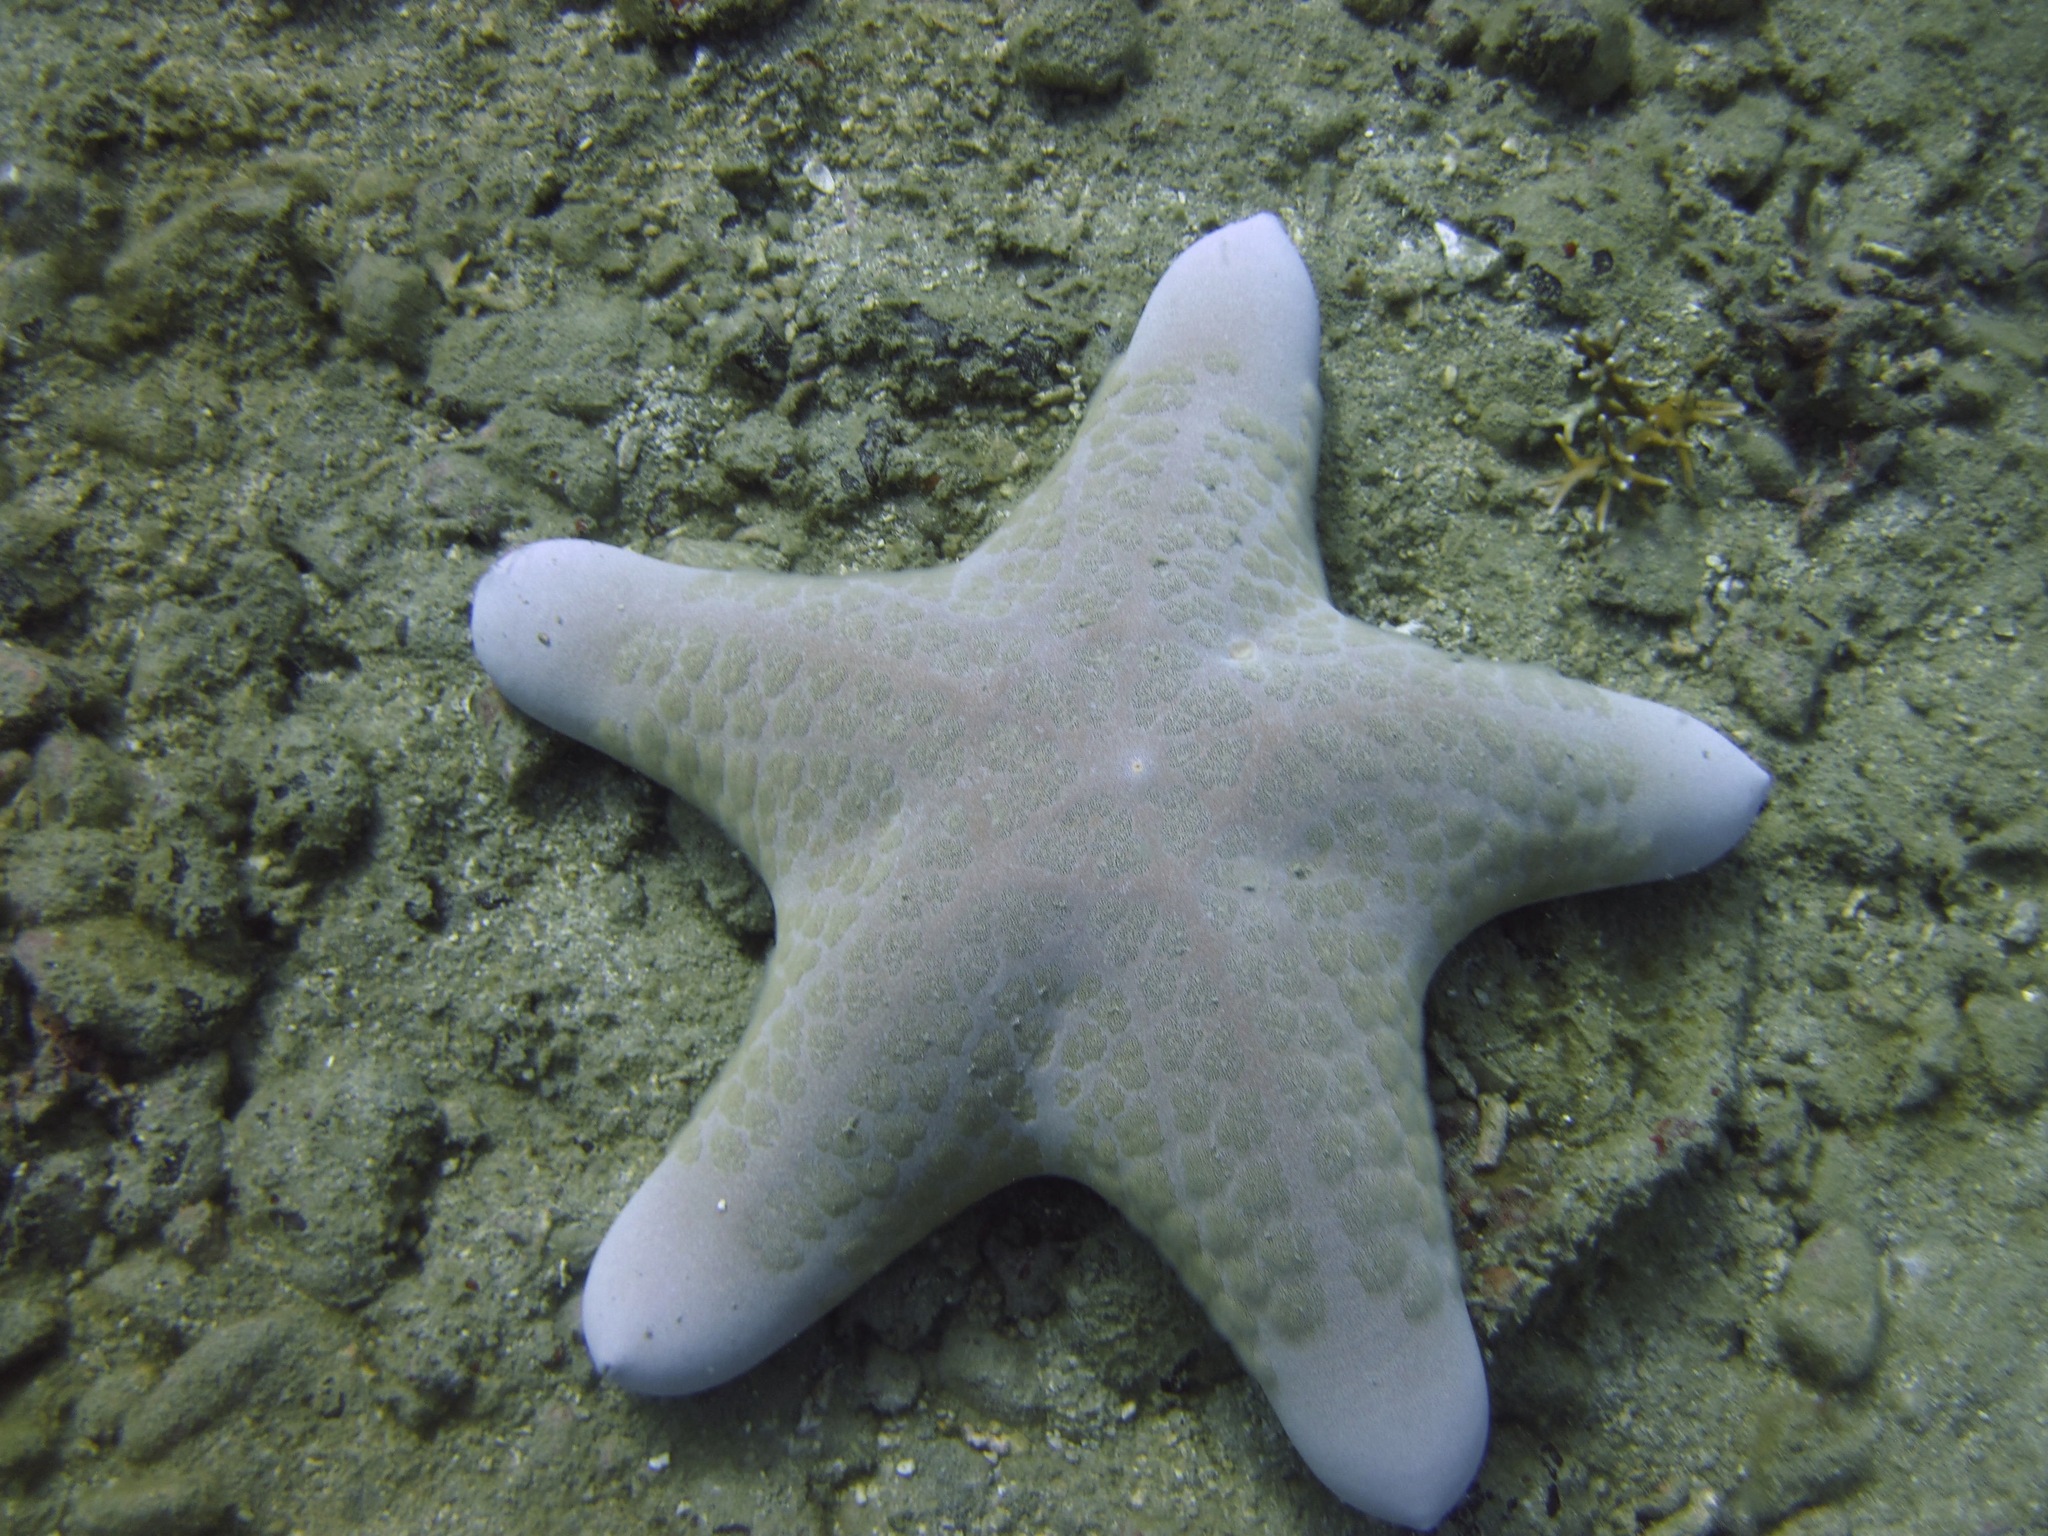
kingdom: Animalia
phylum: Echinodermata
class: Asteroidea
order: Valvatida
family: Oreasteridae
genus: Choriaster
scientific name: Choriaster granulatus
